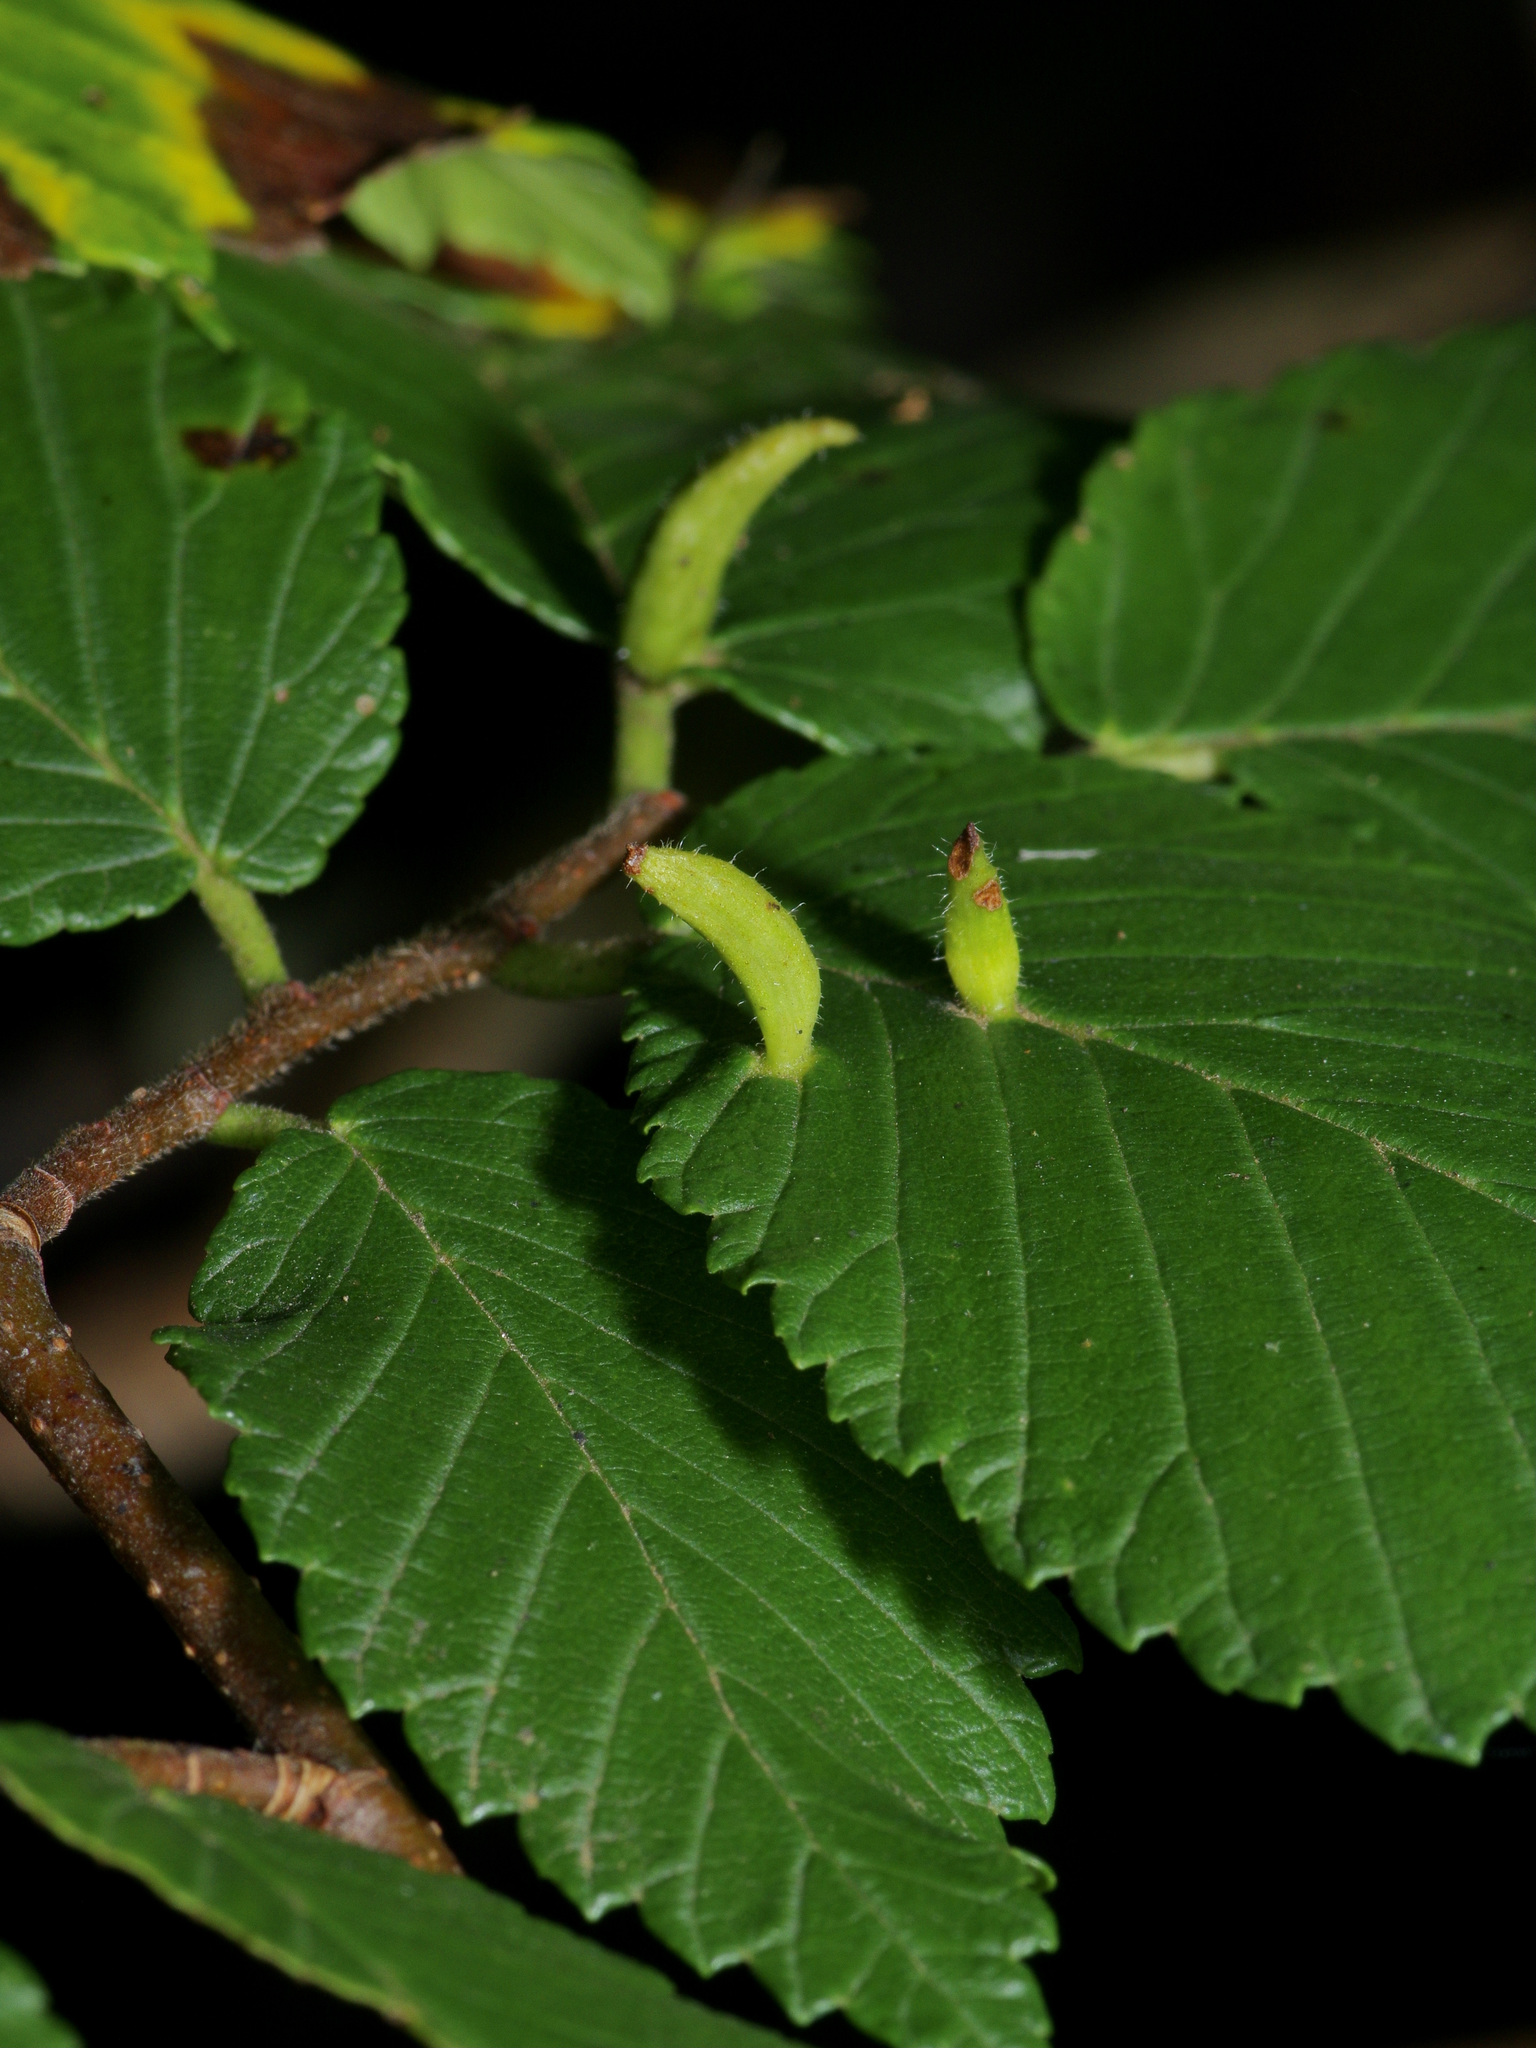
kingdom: Animalia
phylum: Arthropoda
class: Arachnida
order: Trombidiformes
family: Eriophyidae
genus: Aceria
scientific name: Aceria
